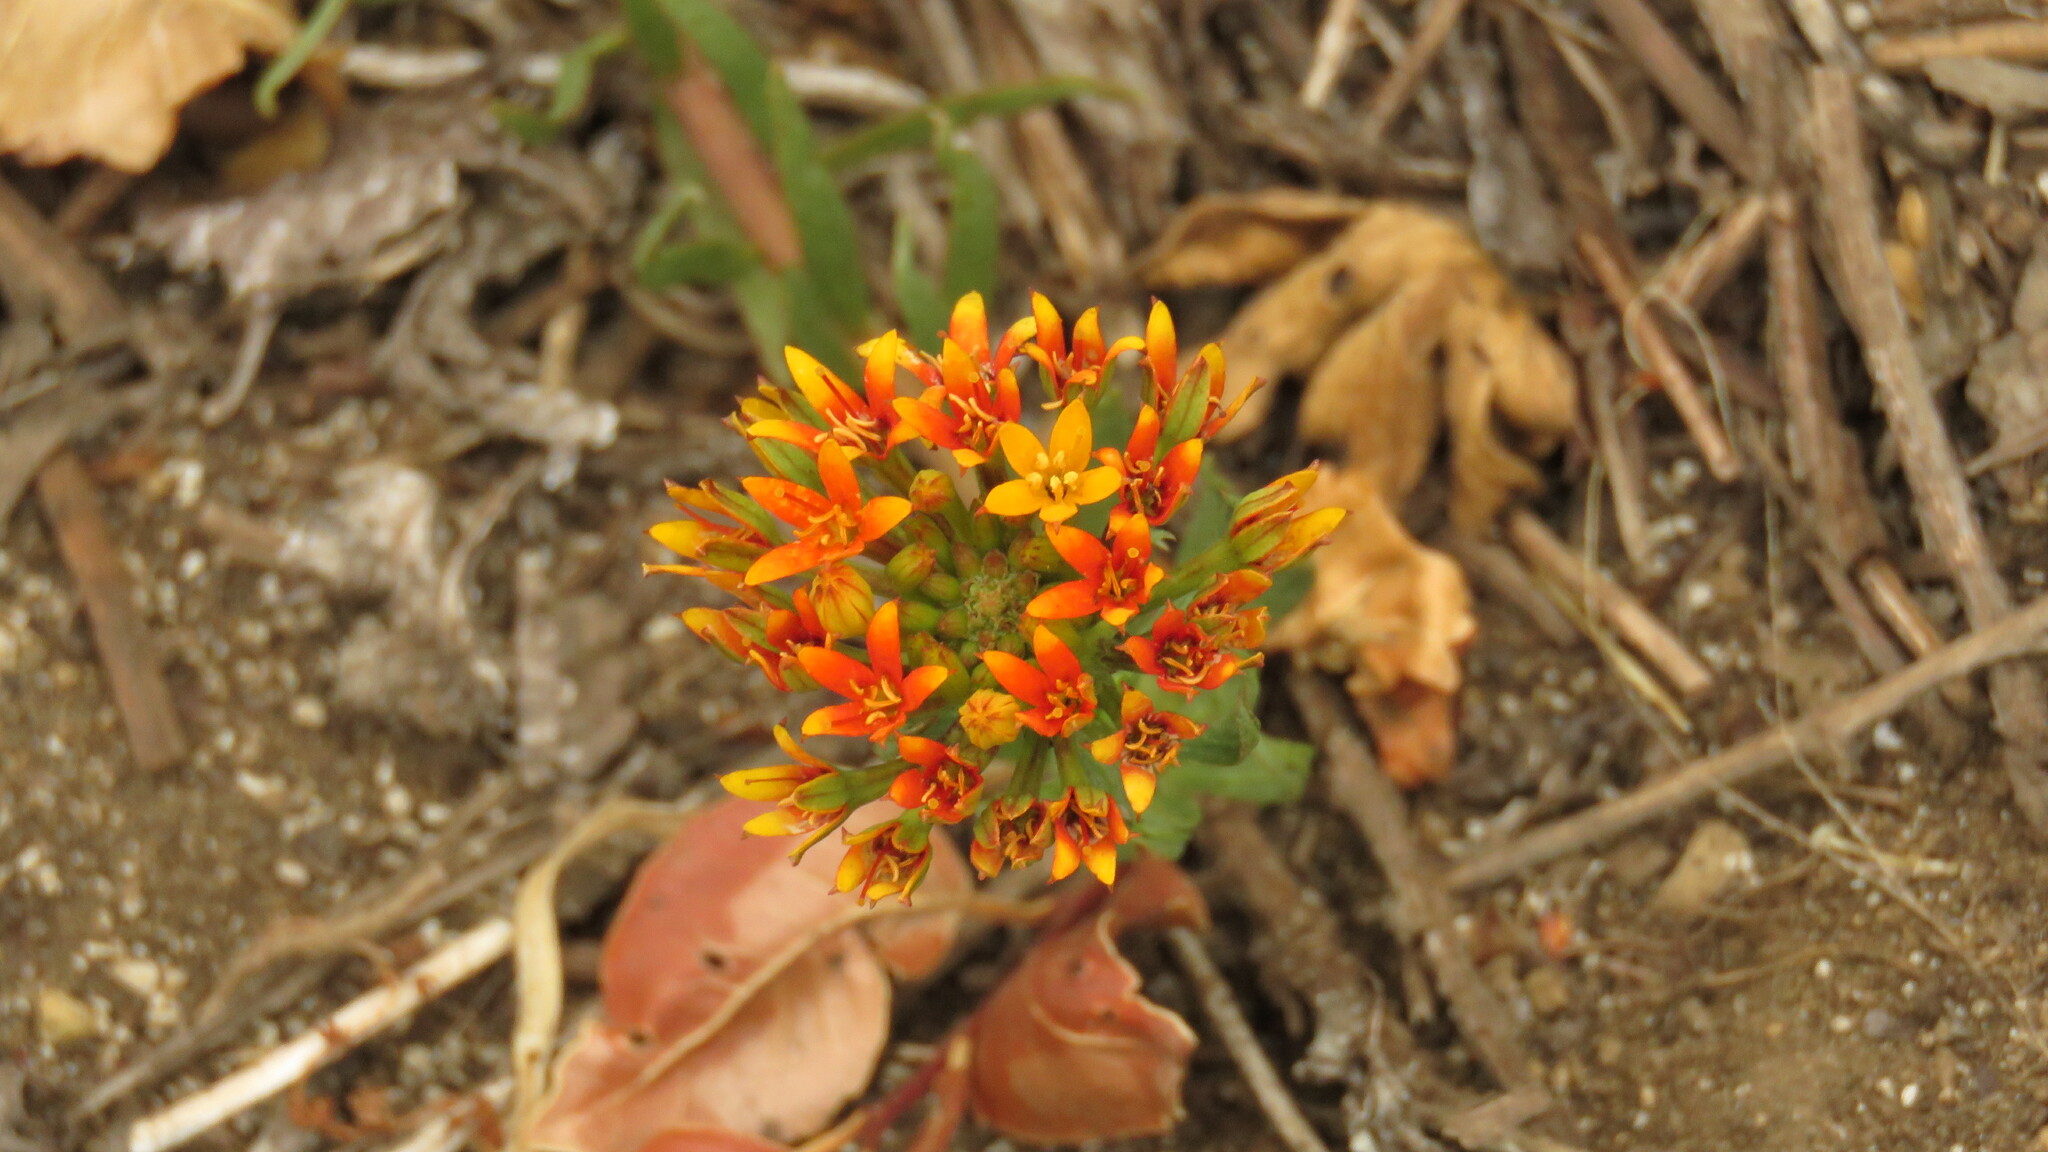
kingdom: Plantae
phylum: Tracheophyta
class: Magnoliopsida
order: Santalales
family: Schoepfiaceae
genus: Quinchamalium
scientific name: Quinchamalium chilense
